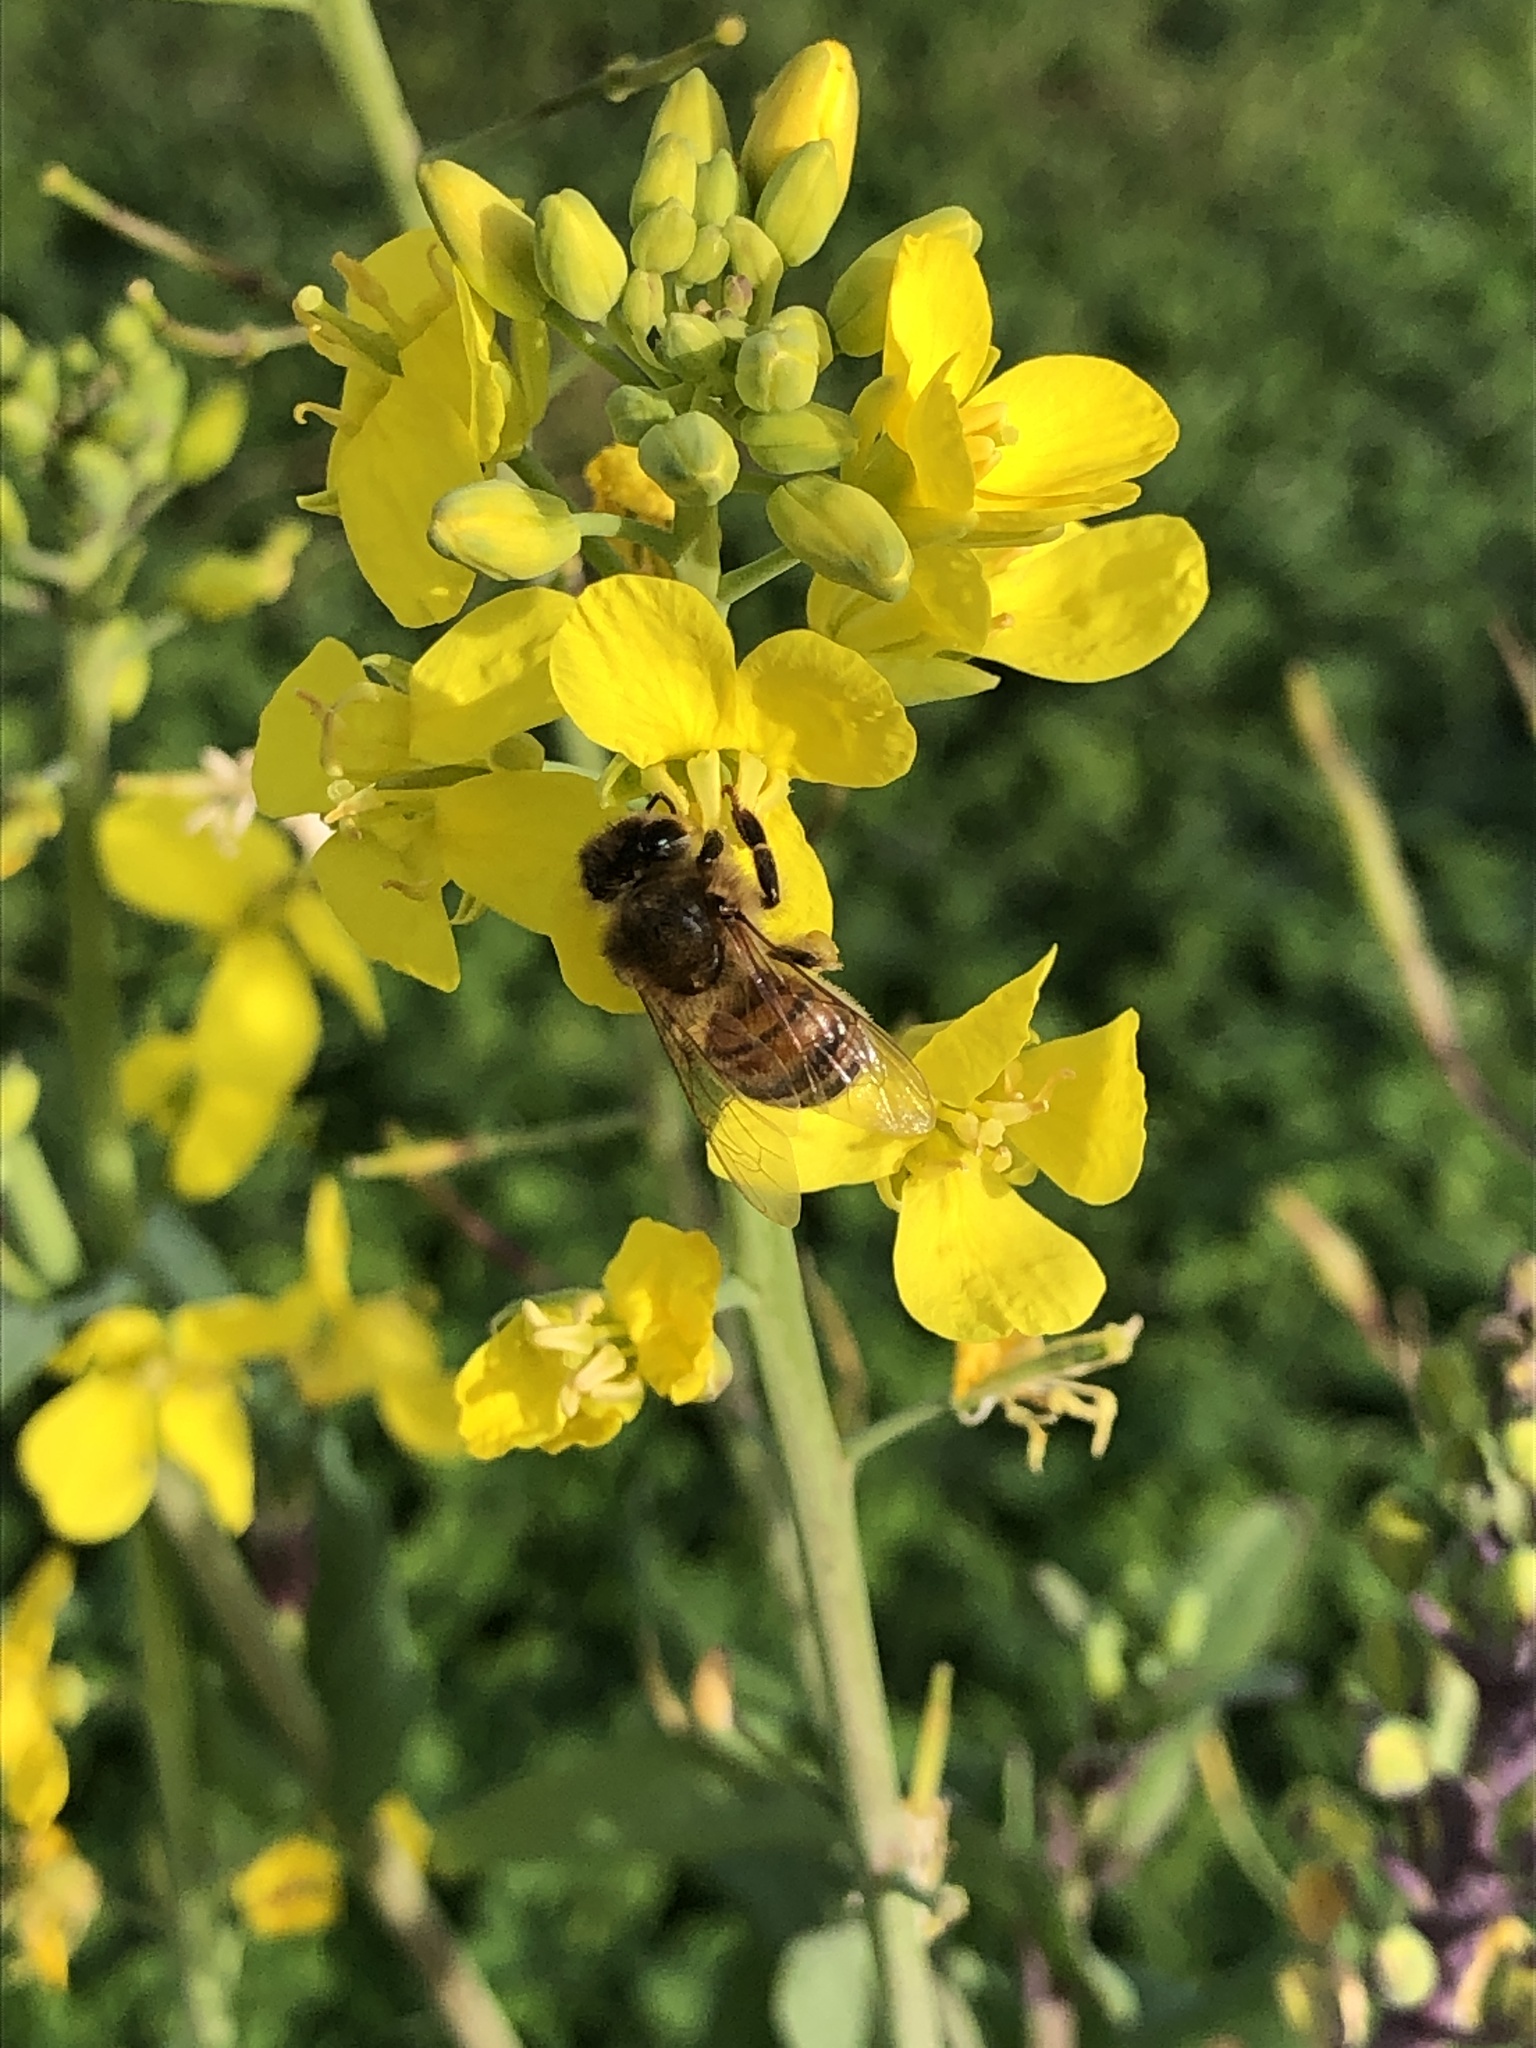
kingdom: Animalia
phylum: Arthropoda
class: Insecta
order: Hymenoptera
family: Apidae
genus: Apis
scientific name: Apis mellifera
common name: Honey bee
